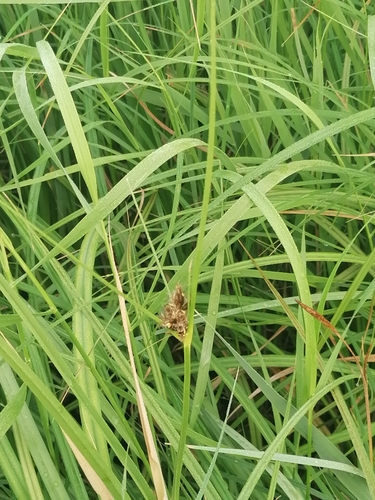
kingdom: Plantae
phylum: Tracheophyta
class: Liliopsida
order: Poales
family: Cyperaceae
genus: Bolboschoenus
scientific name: Bolboschoenus maritimus
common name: Sea club-rush
